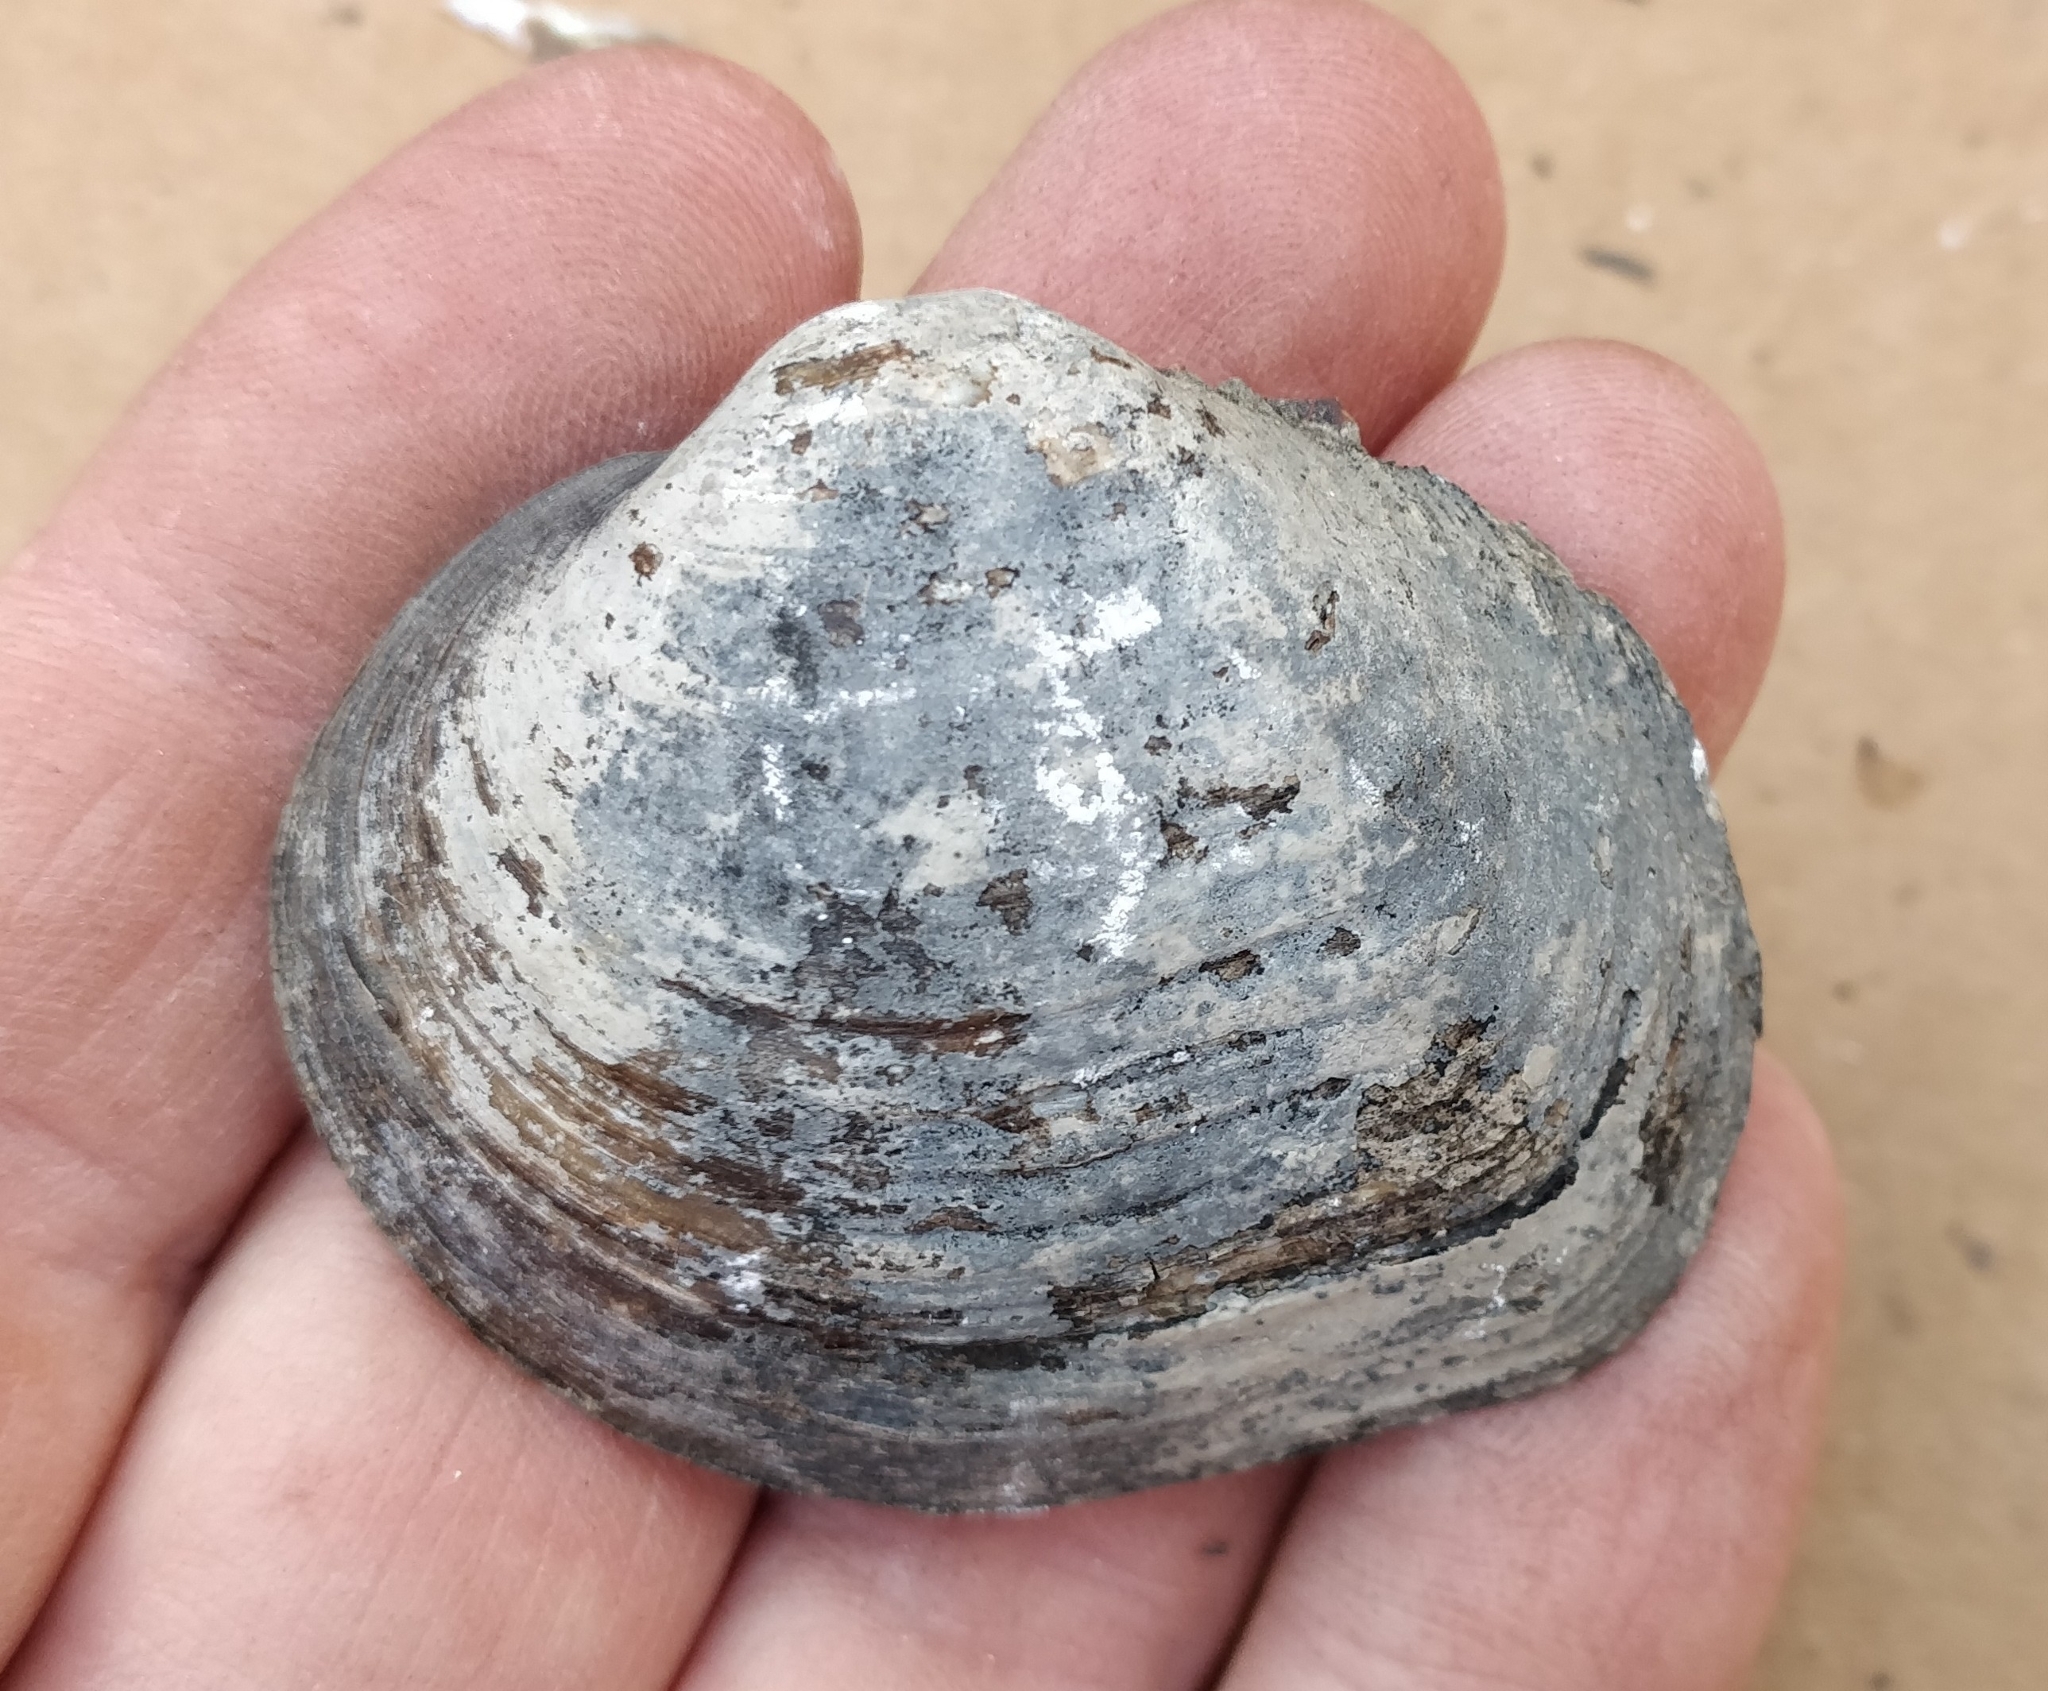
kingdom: Animalia
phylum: Mollusca
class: Bivalvia
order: Unionida
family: Unionidae
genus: Cyclonaias
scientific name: Cyclonaias pustulosa
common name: Pimpleback
